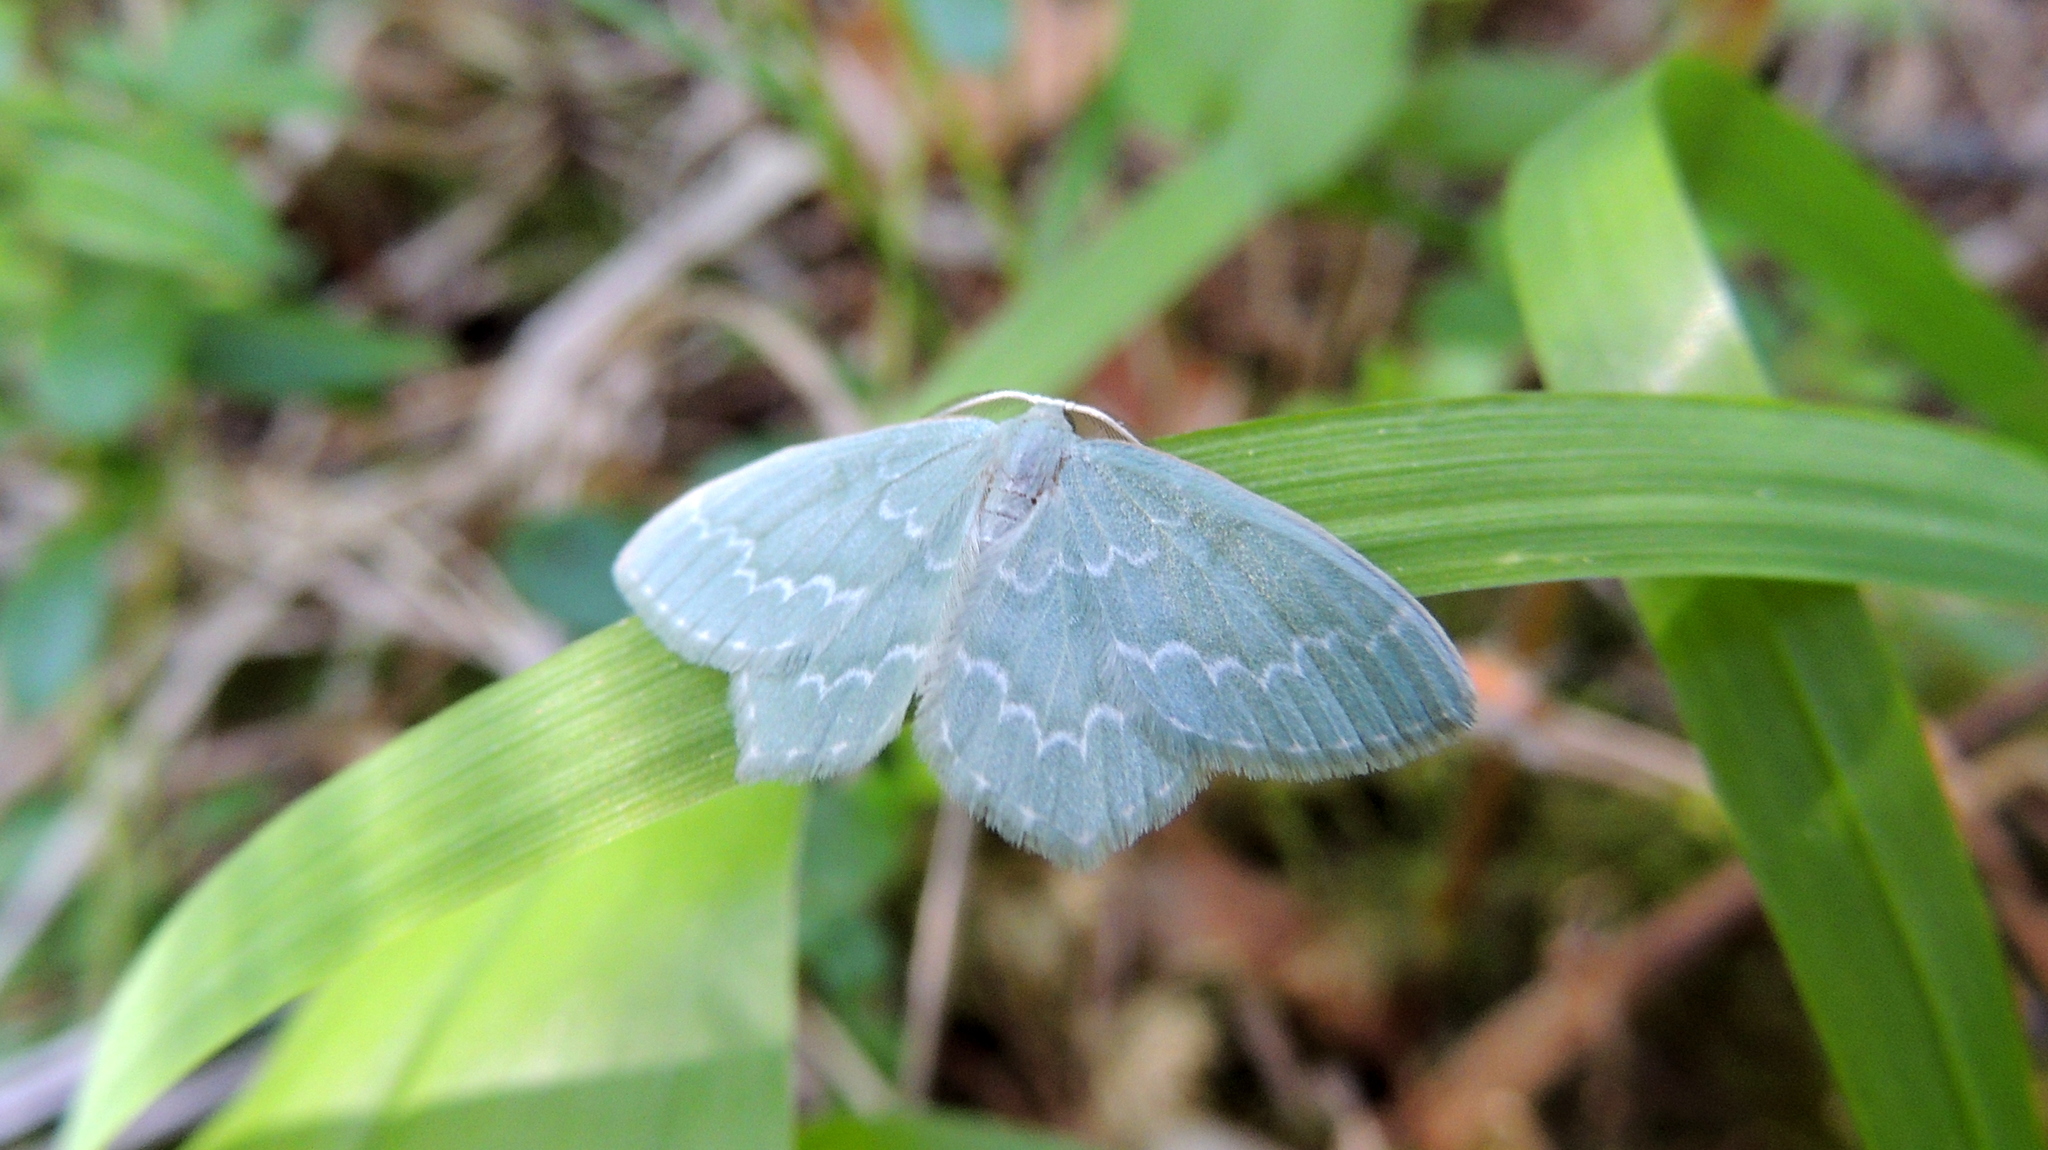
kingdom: Animalia
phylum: Arthropoda
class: Insecta
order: Lepidoptera
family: Geometridae
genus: Jodis
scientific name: Jodis putata
